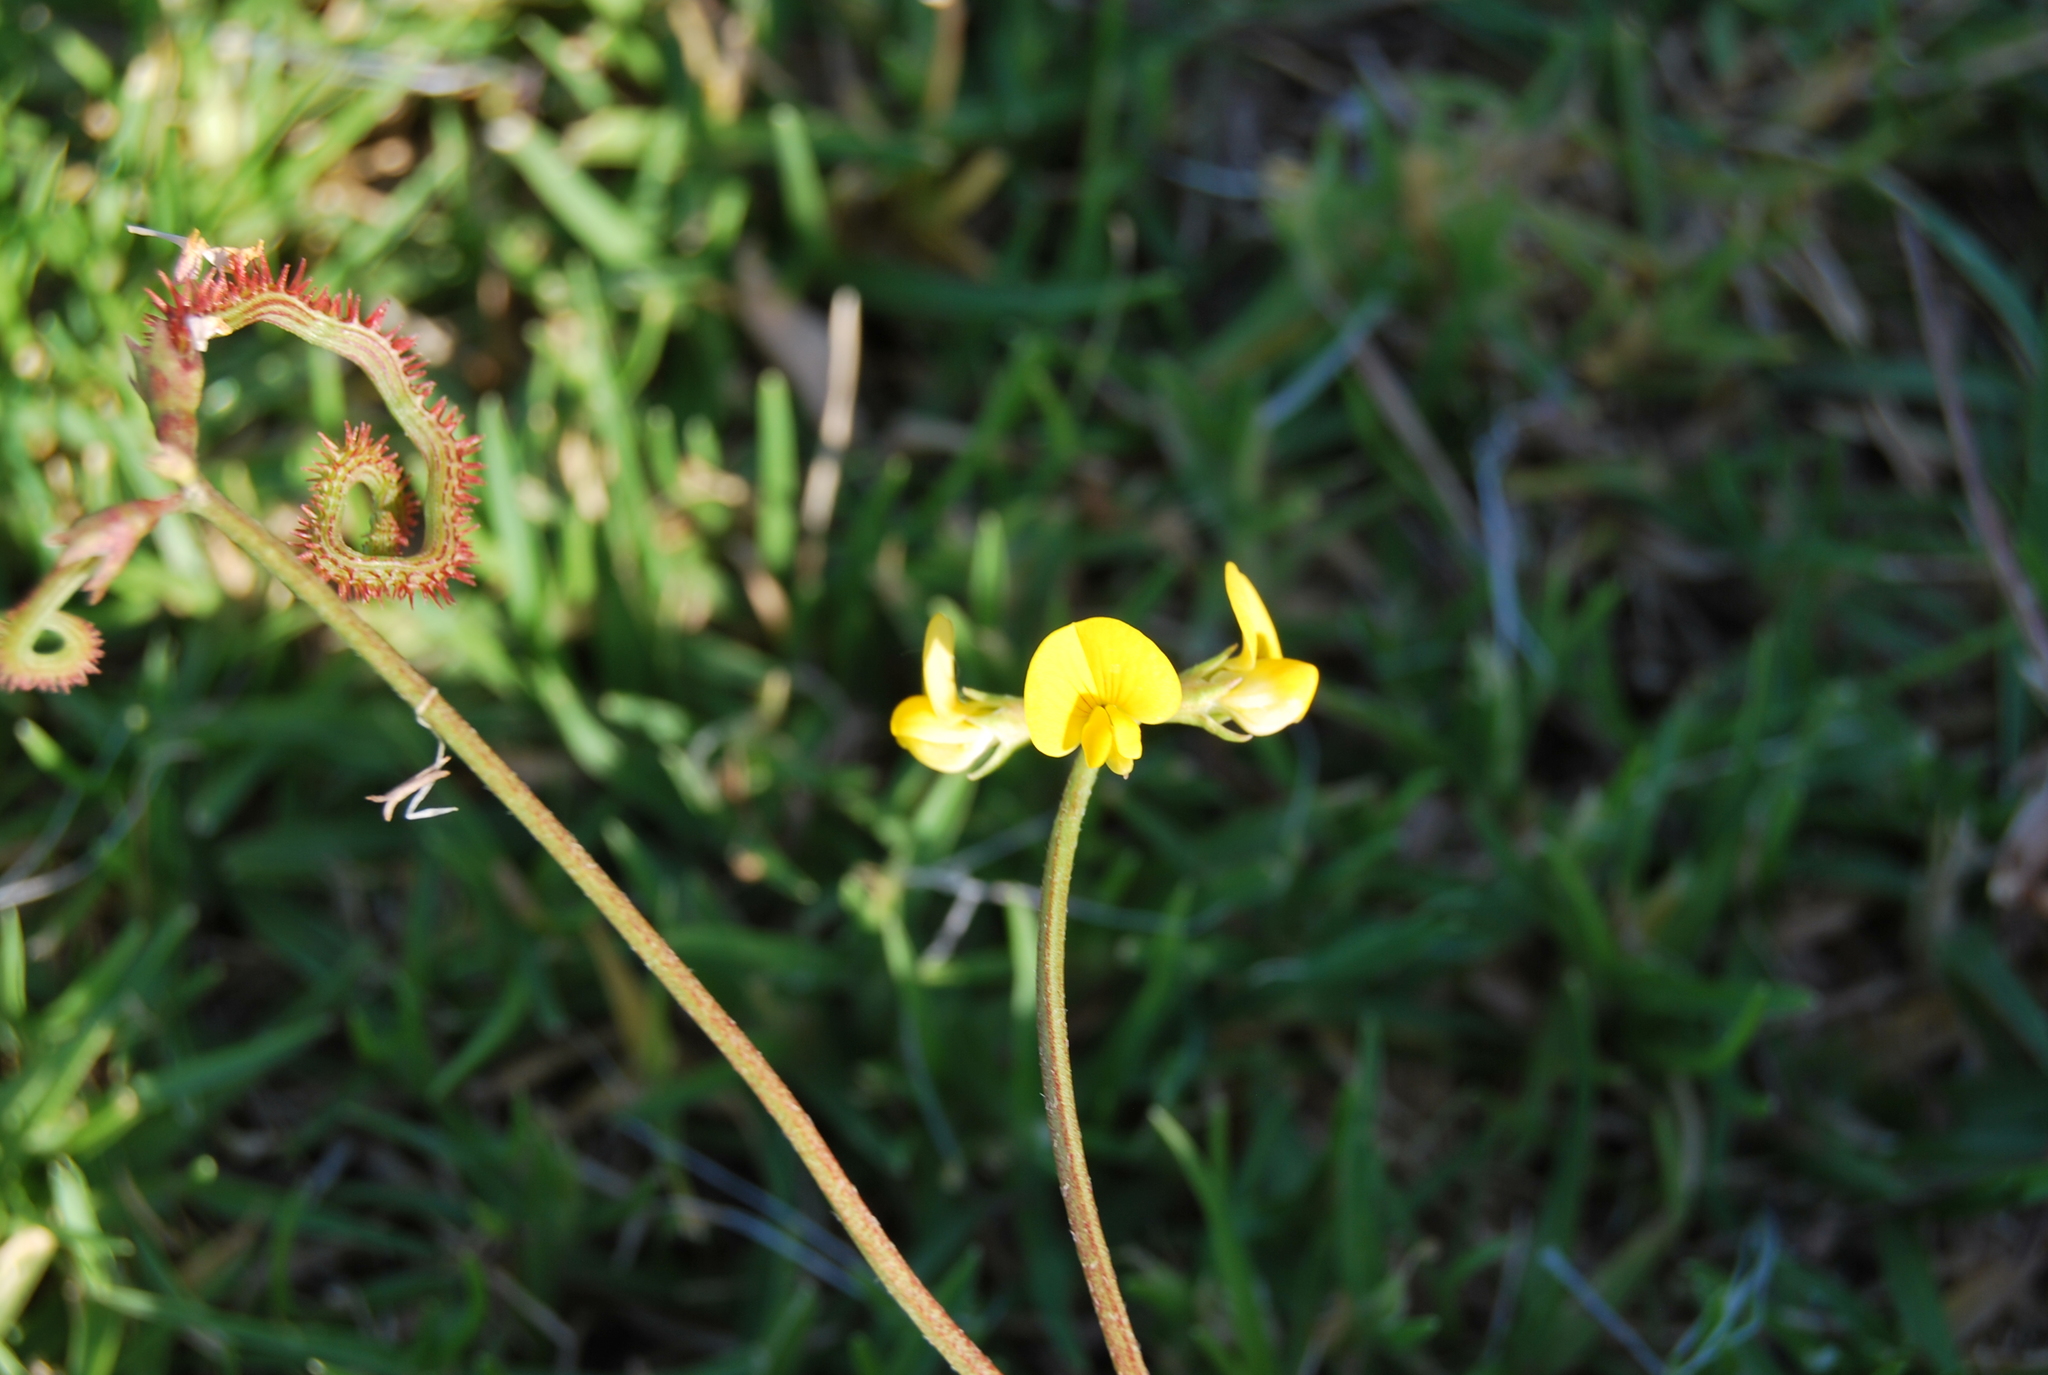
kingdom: Plantae
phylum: Tracheophyta
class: Magnoliopsida
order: Fabales
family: Fabaceae
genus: Scorpiurus
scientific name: Scorpiurus muricatus
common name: Caterpillar-plant
